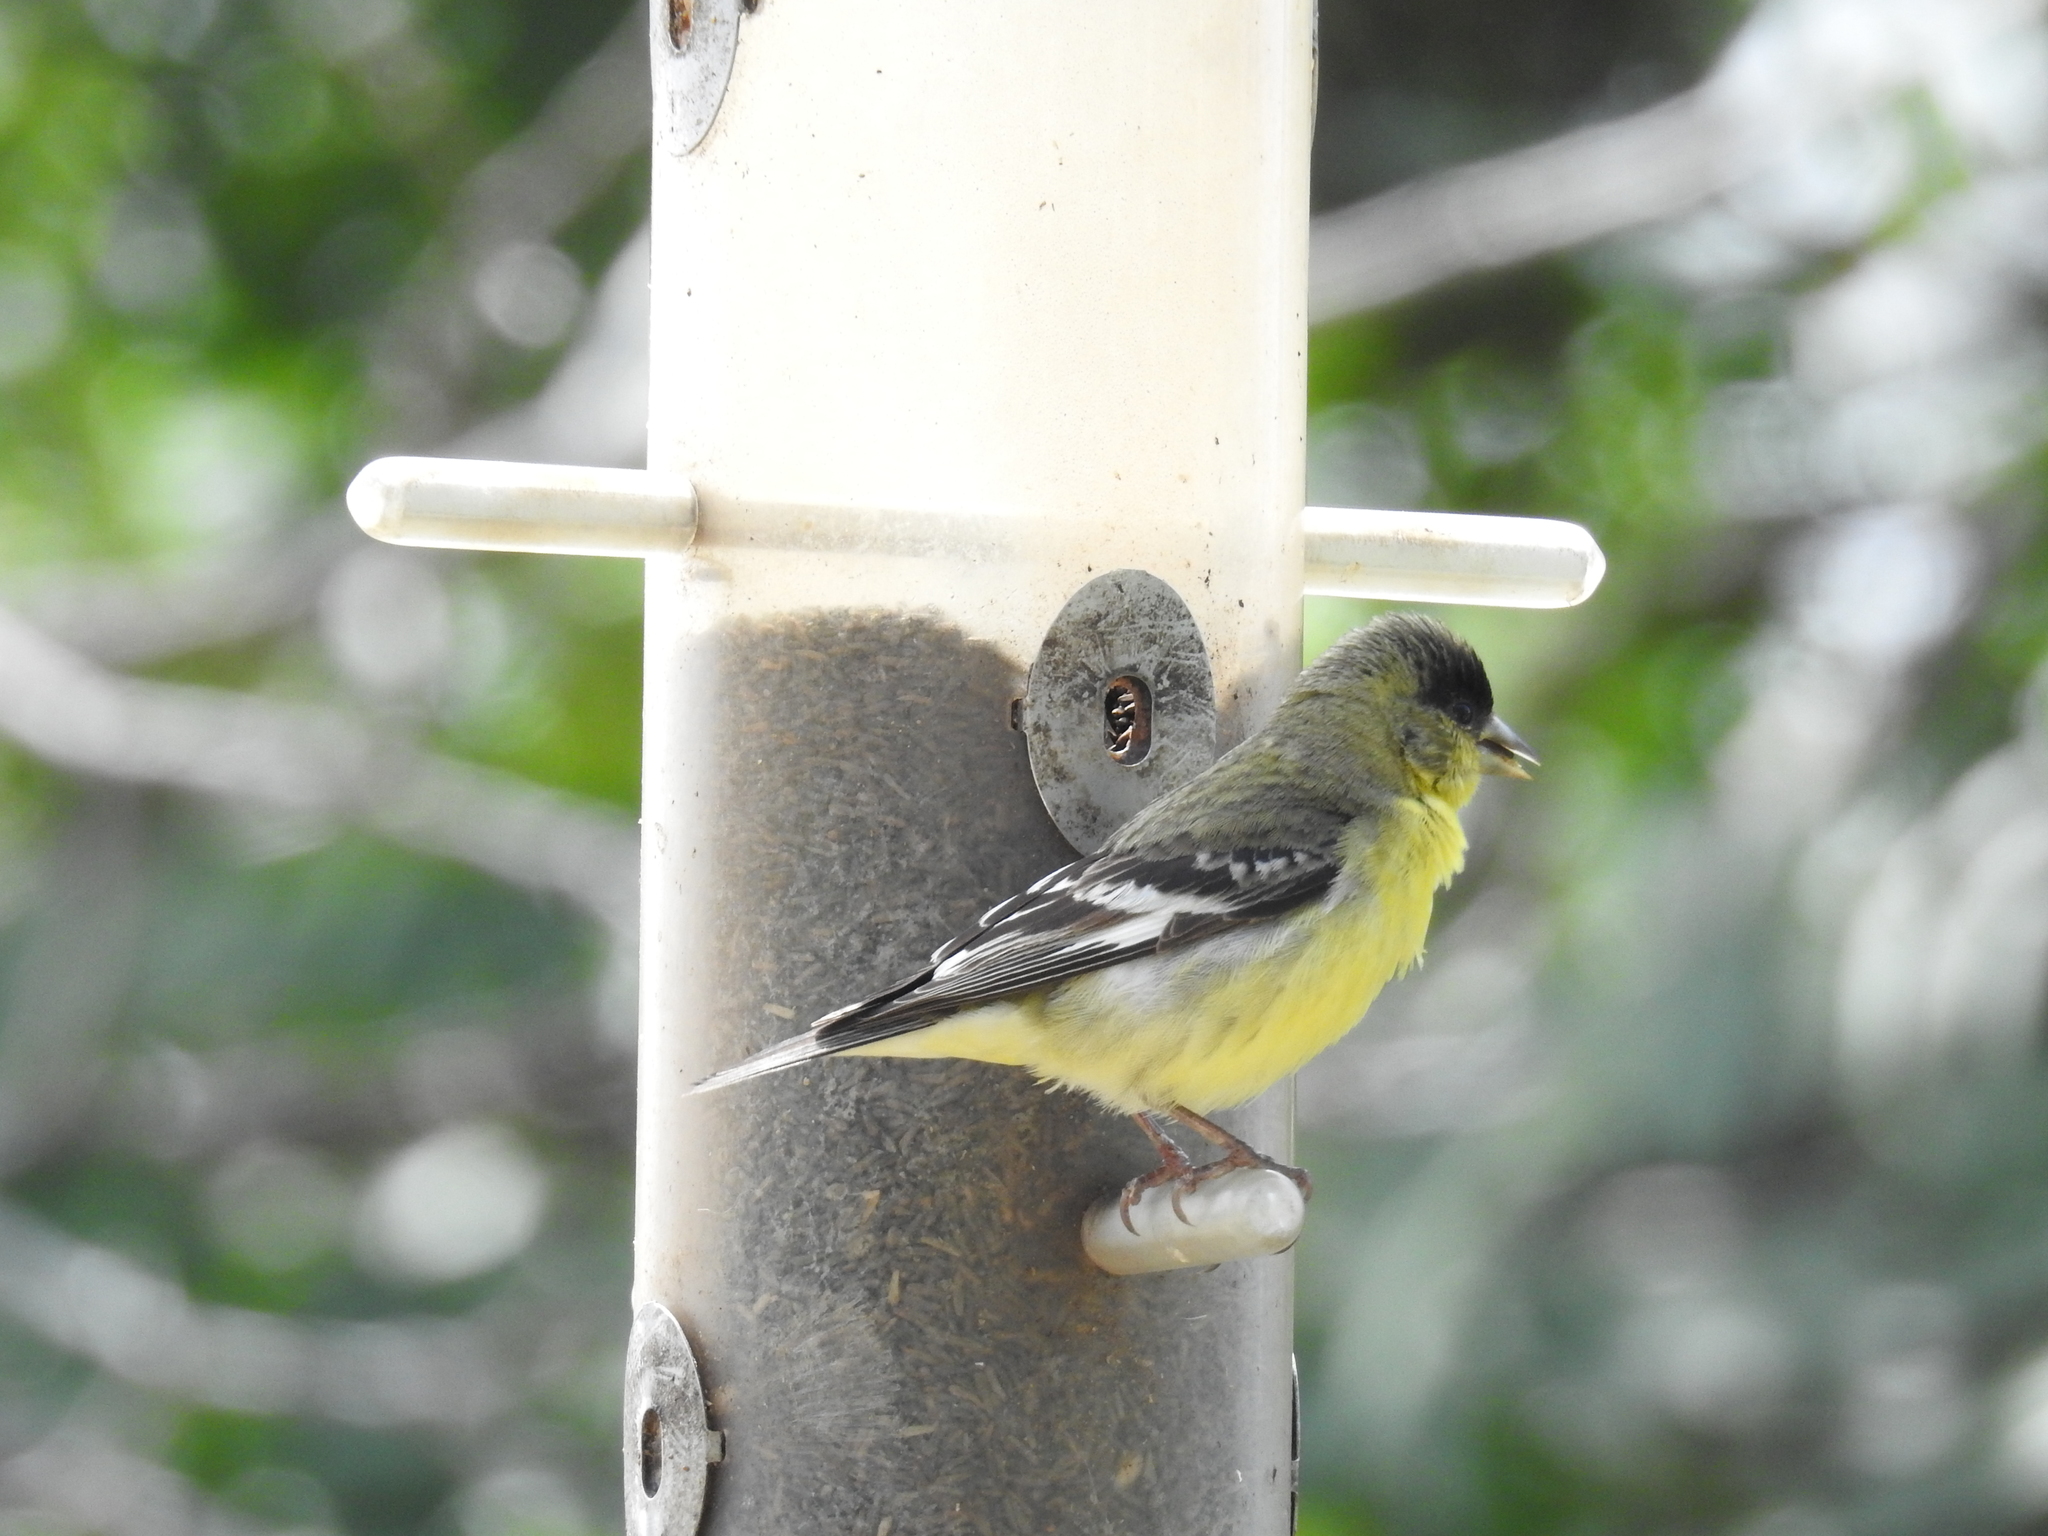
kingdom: Animalia
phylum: Chordata
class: Aves
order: Passeriformes
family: Fringillidae
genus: Spinus
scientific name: Spinus psaltria
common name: Lesser goldfinch
